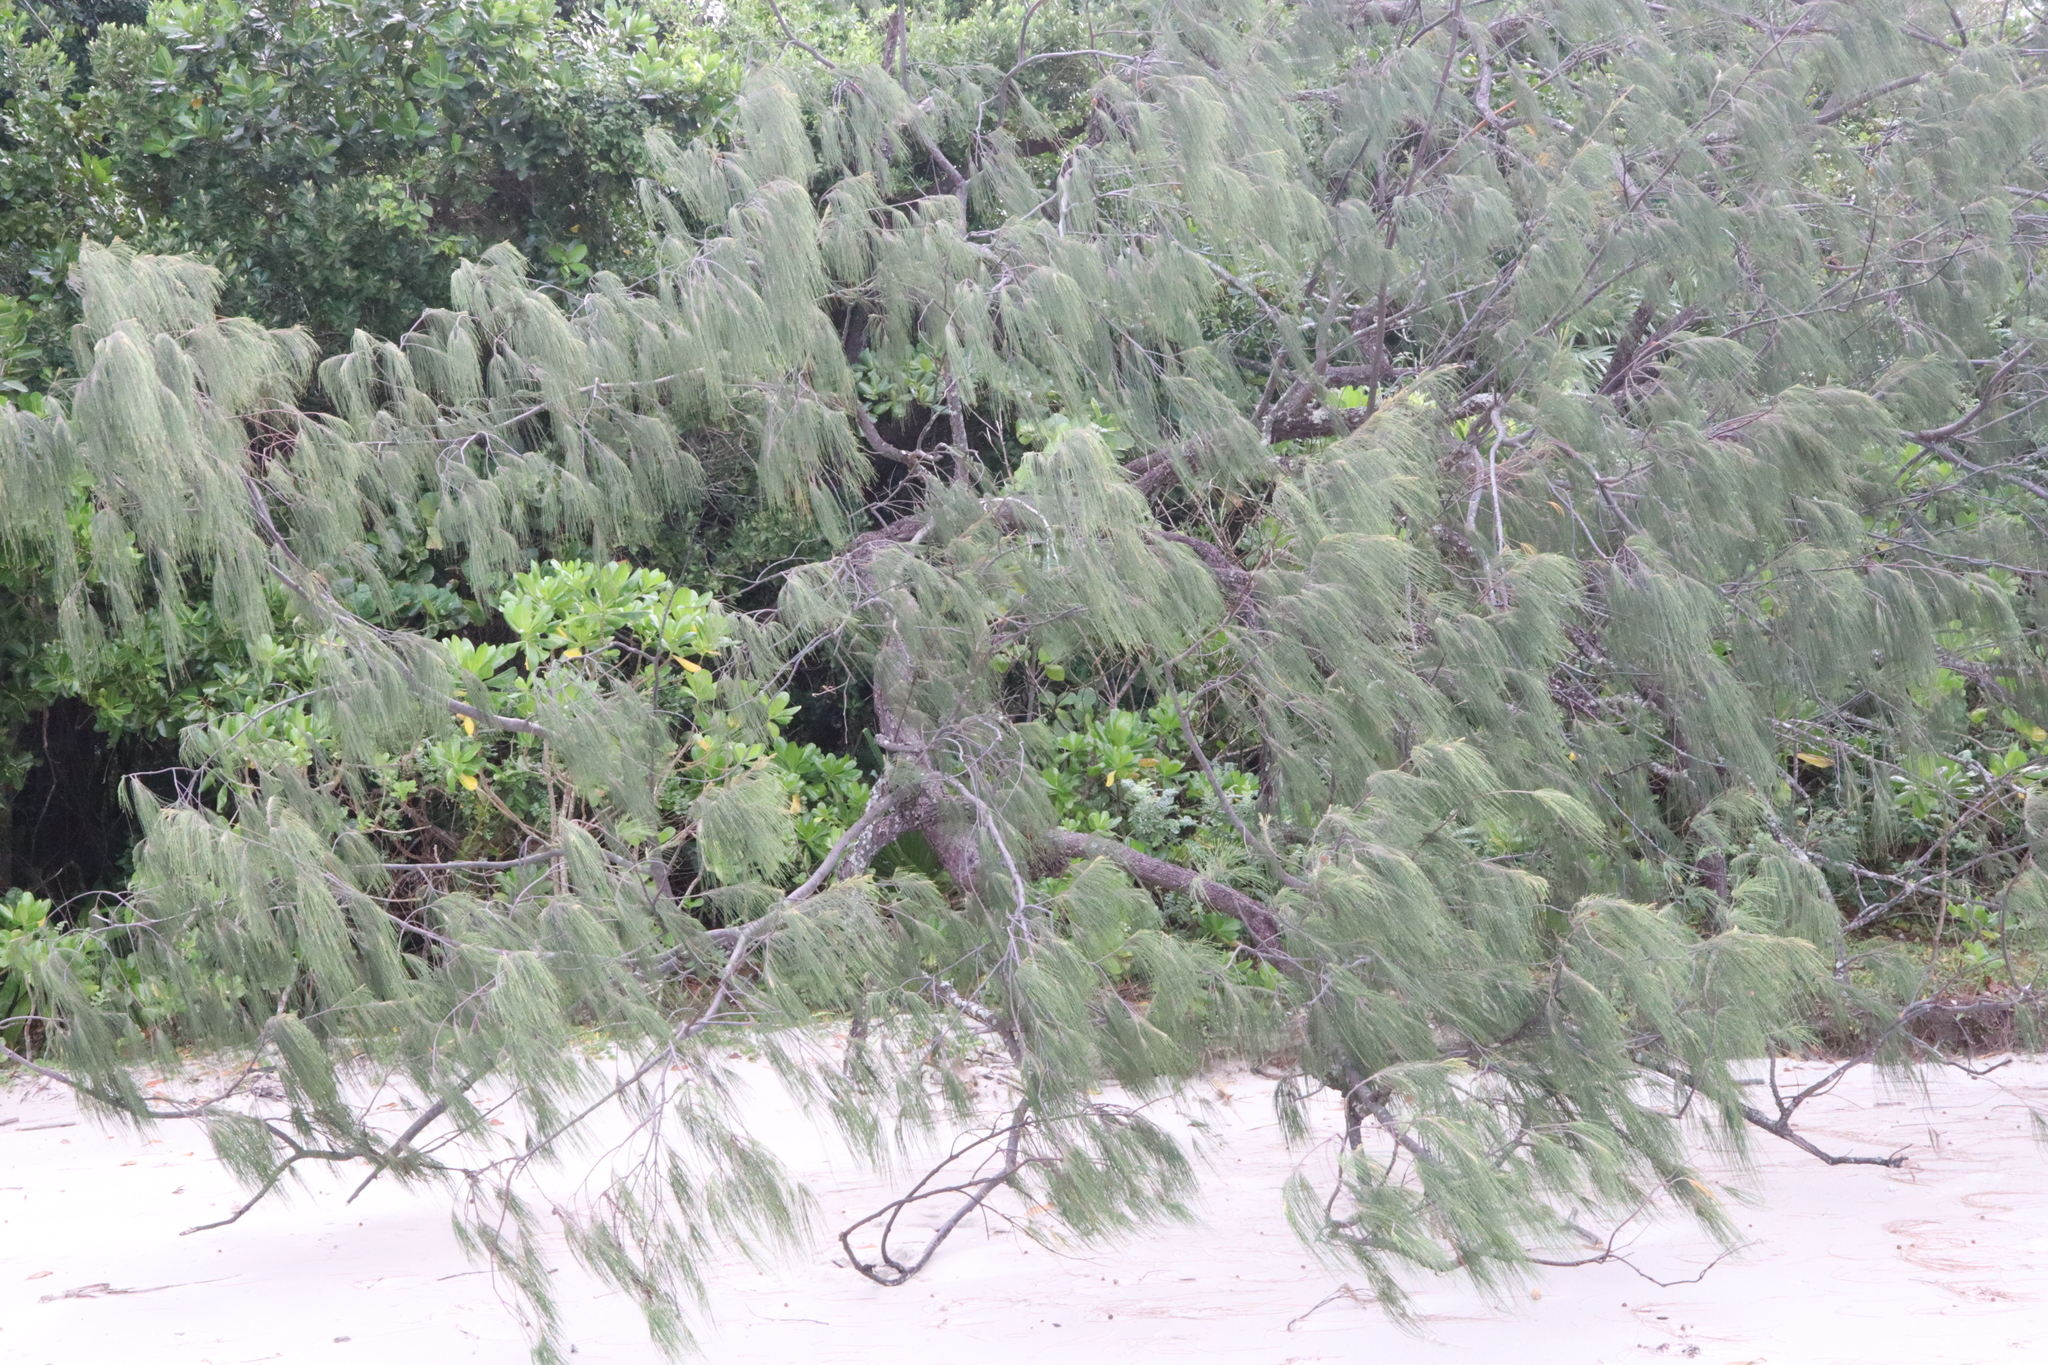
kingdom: Plantae
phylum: Tracheophyta
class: Magnoliopsida
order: Fagales
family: Casuarinaceae
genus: Casuarina
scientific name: Casuarina equisetifolia
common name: Beach sheoak
